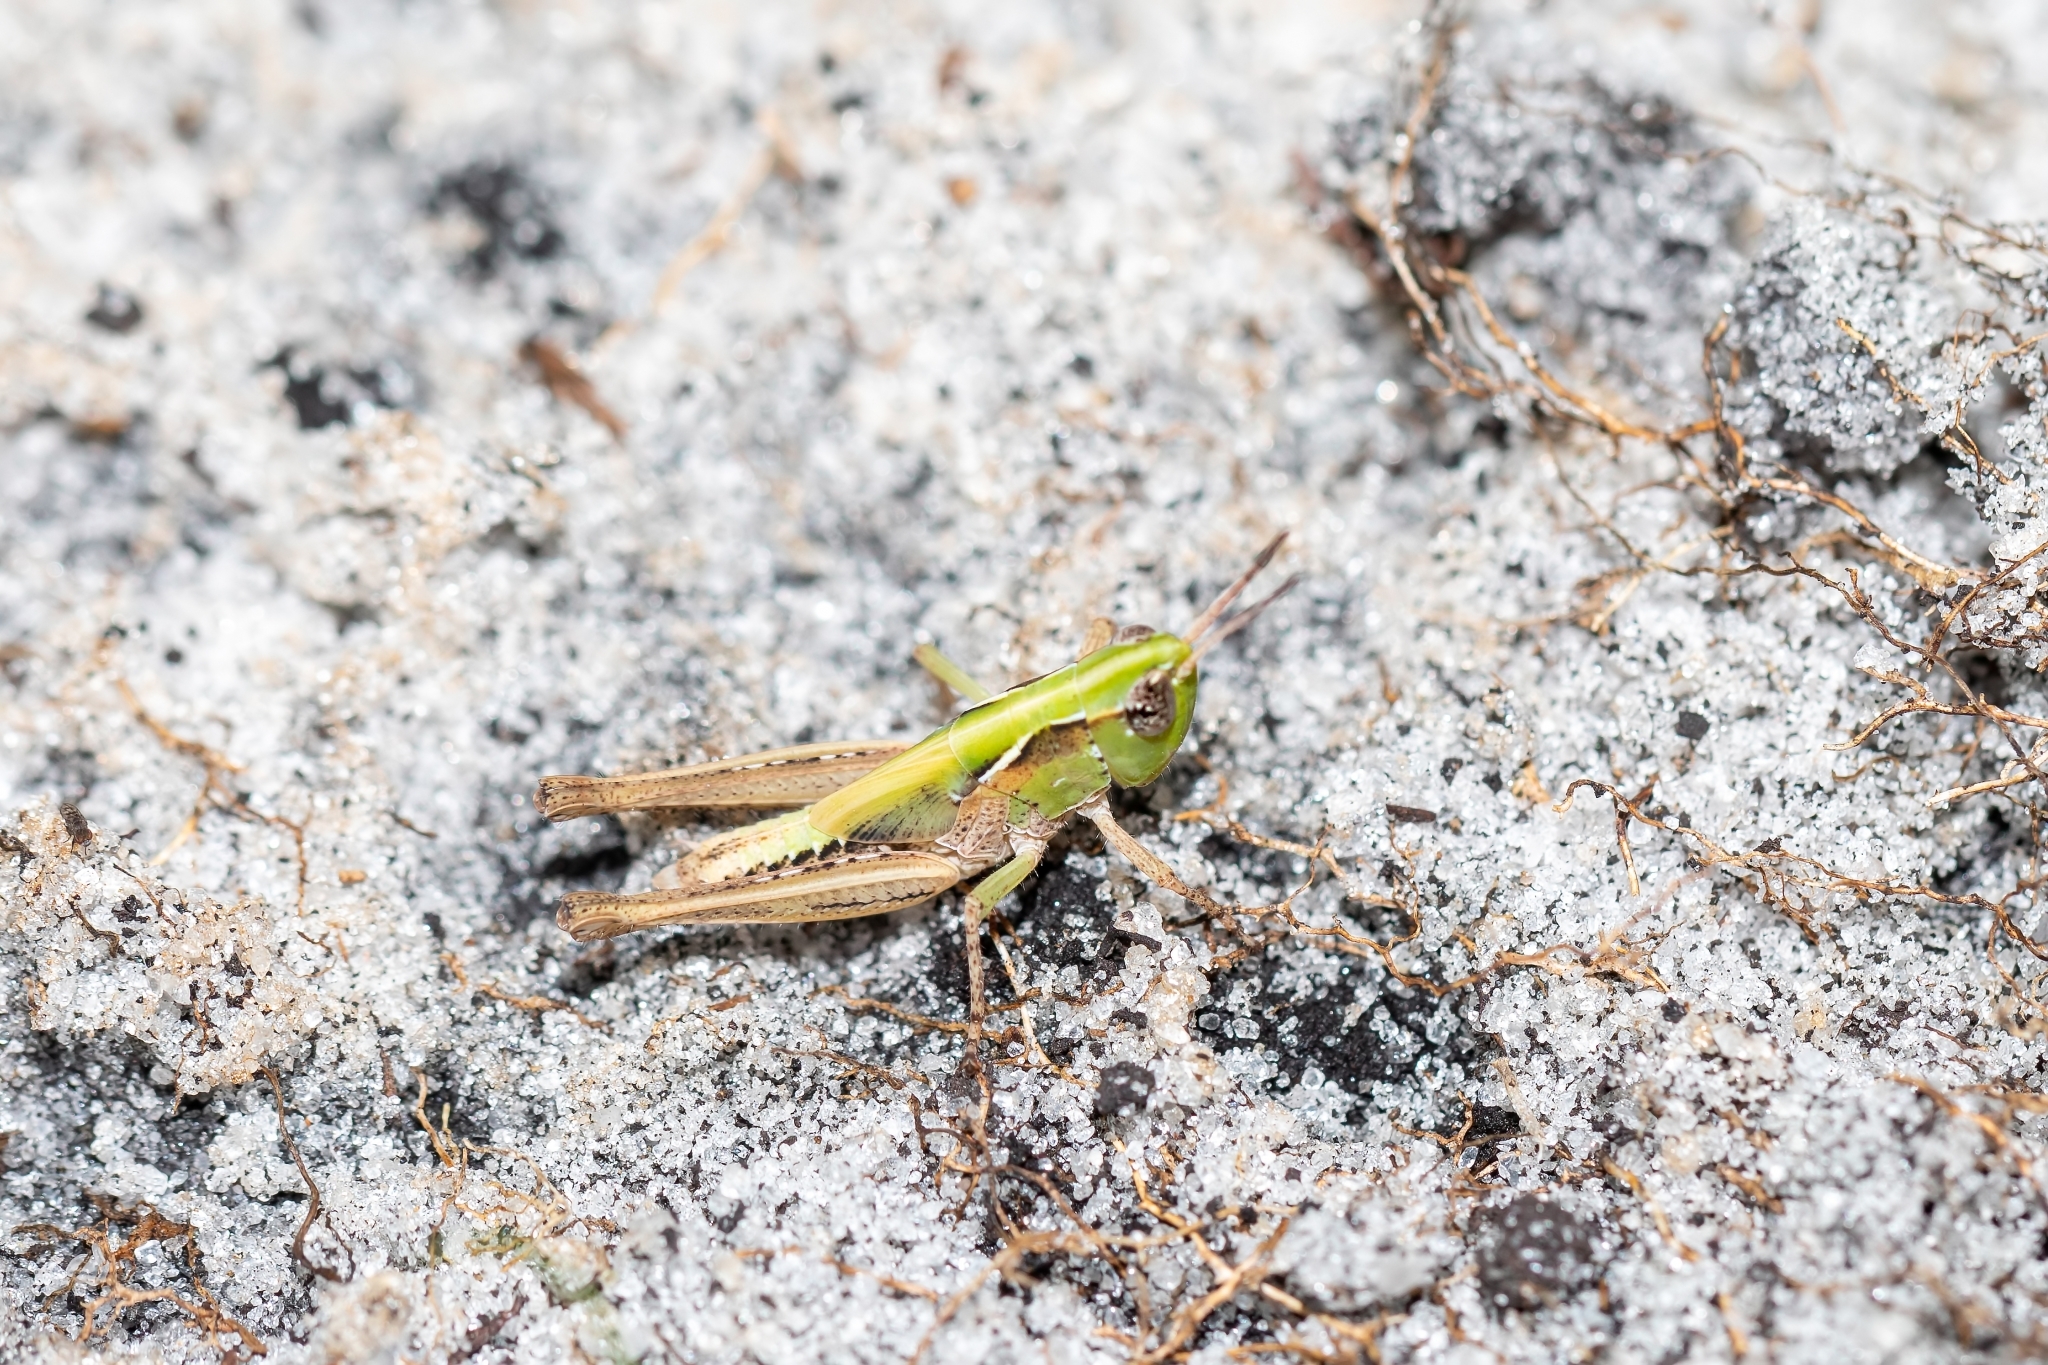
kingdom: Animalia
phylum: Arthropoda
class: Insecta
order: Orthoptera
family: Acrididae
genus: Orphulella
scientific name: Orphulella pelidna
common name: Spotted-wing grasshopper
